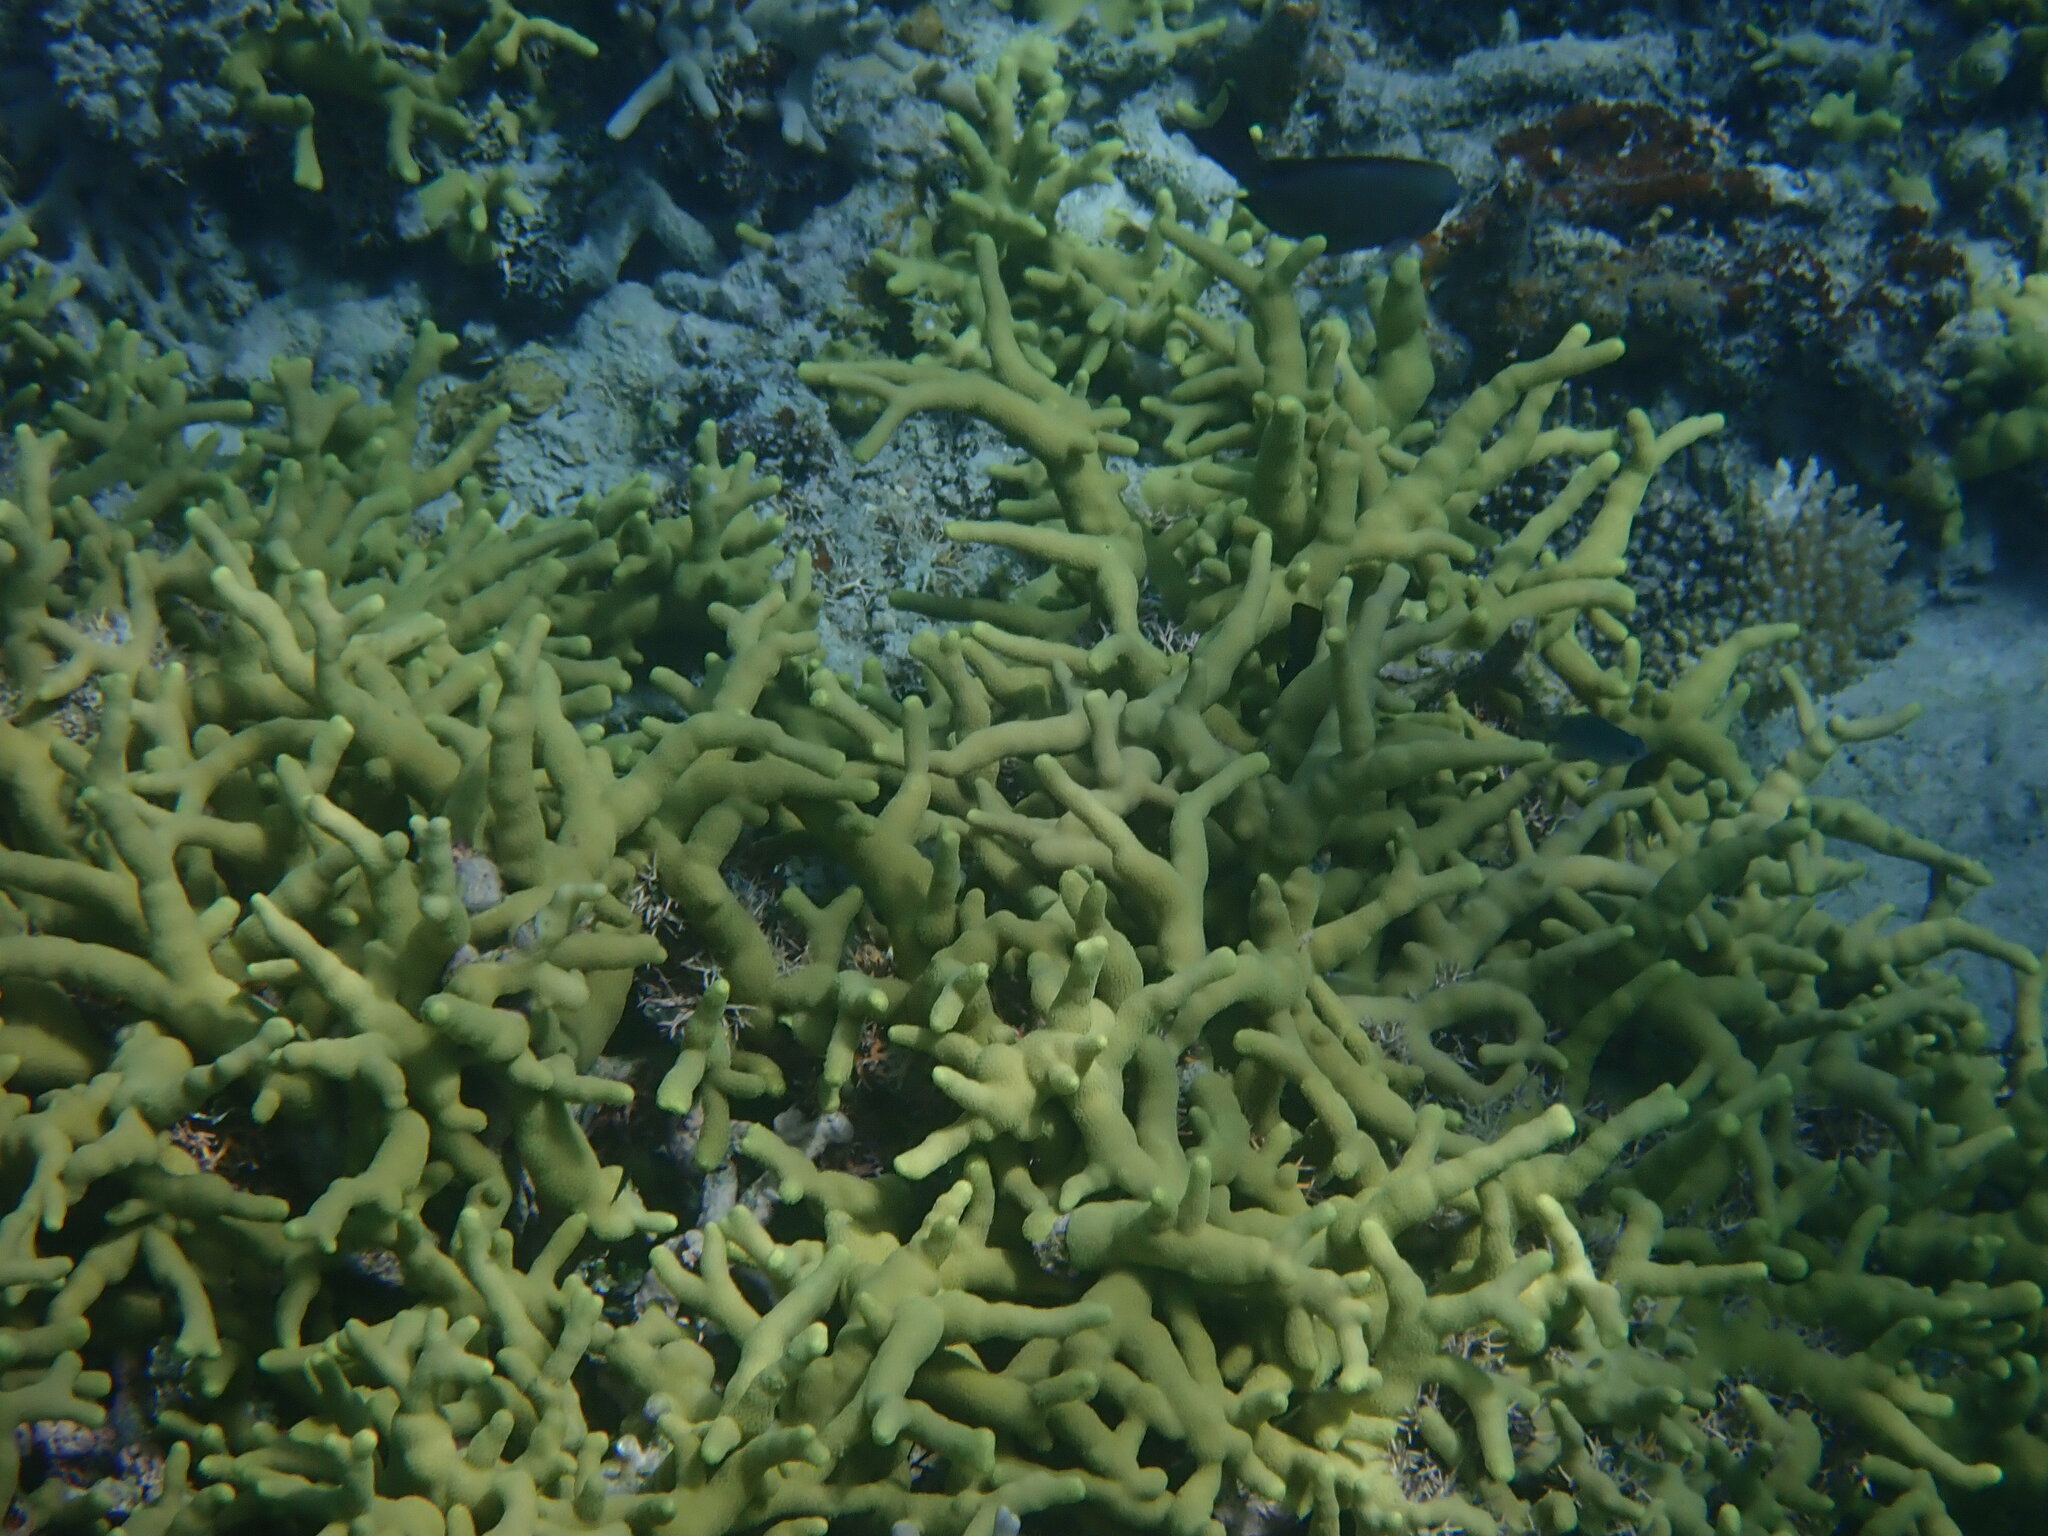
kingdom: Animalia
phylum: Cnidaria
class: Anthozoa
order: Scleractinia
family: Poritidae
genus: Porites
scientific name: Porites cylindrica
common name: Hump coral
